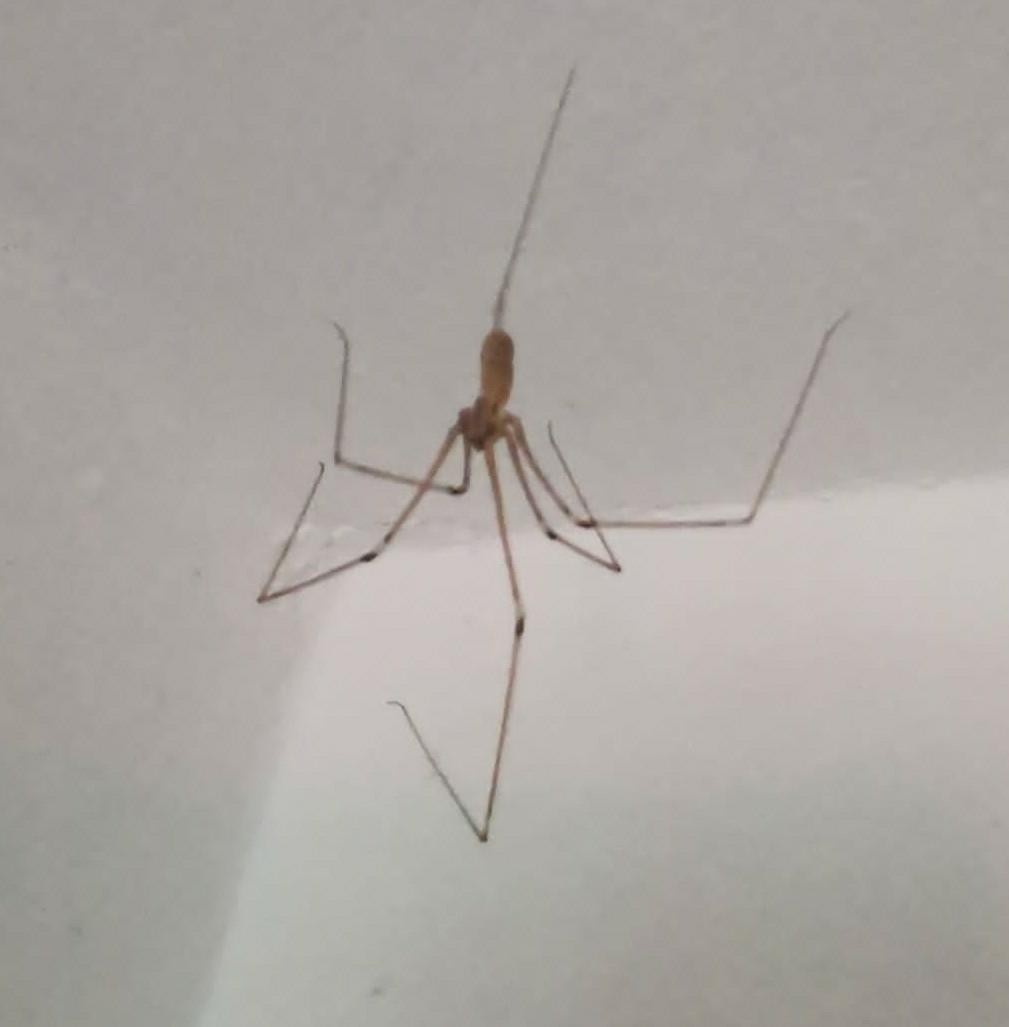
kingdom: Animalia
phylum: Arthropoda
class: Arachnida
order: Araneae
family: Pholcidae
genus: Pholcus
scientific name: Pholcus phalangioides
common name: Longbodied cellar spider
